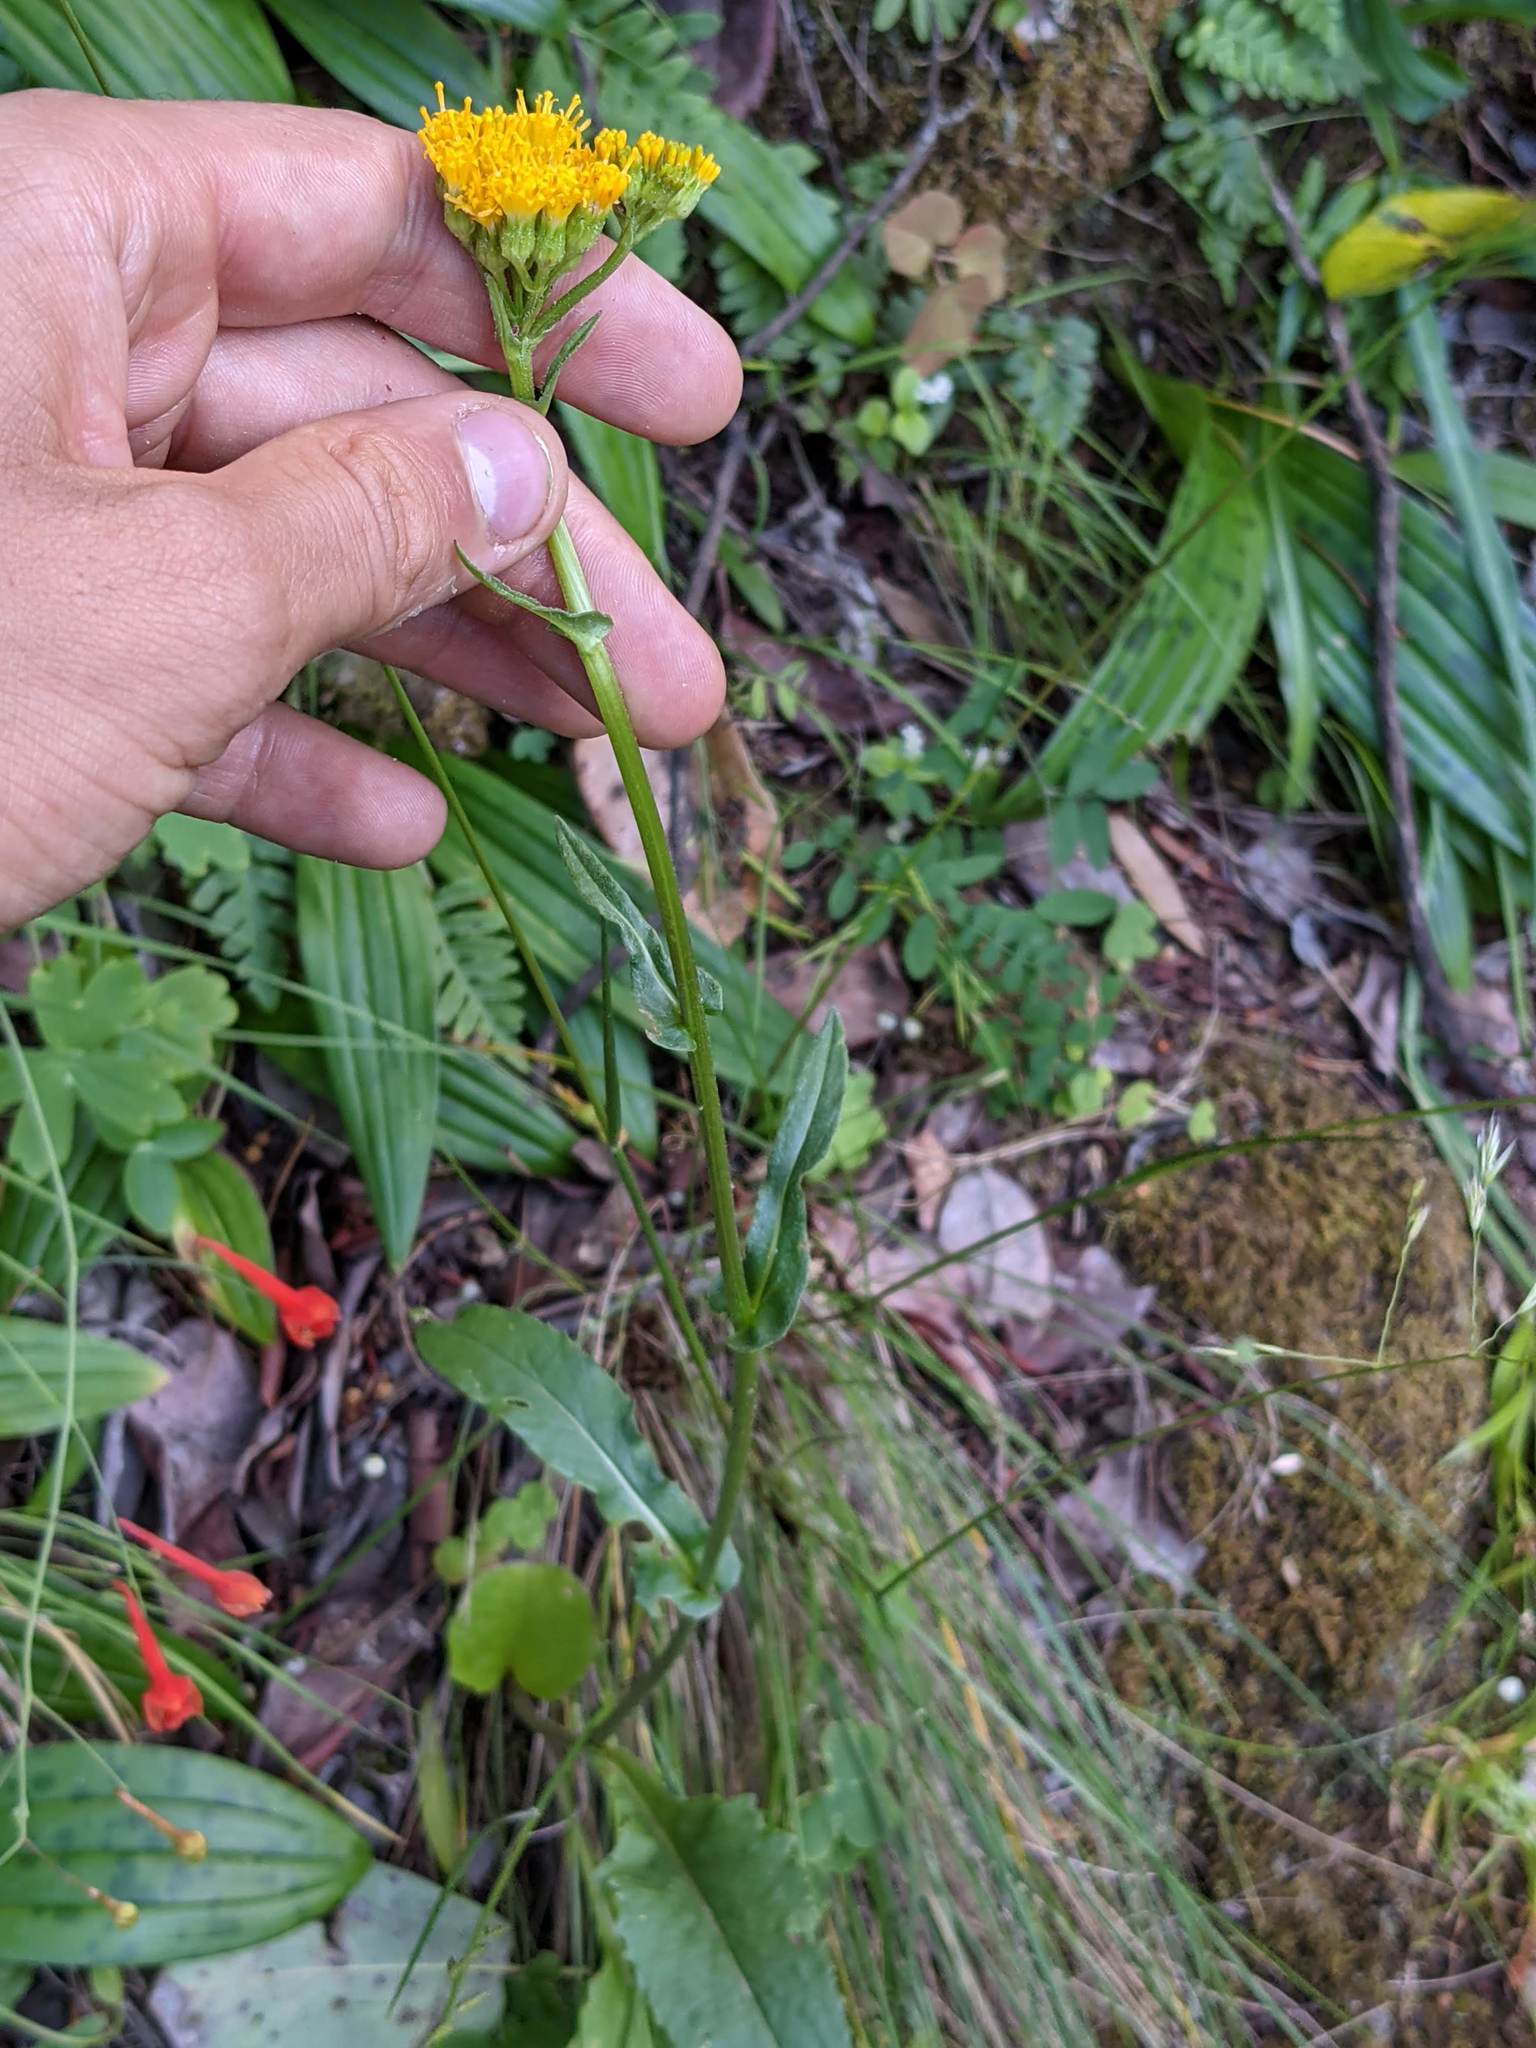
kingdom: Plantae
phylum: Tracheophyta
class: Magnoliopsida
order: Asterales
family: Asteraceae
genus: Senecio
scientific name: Senecio aronicoides
